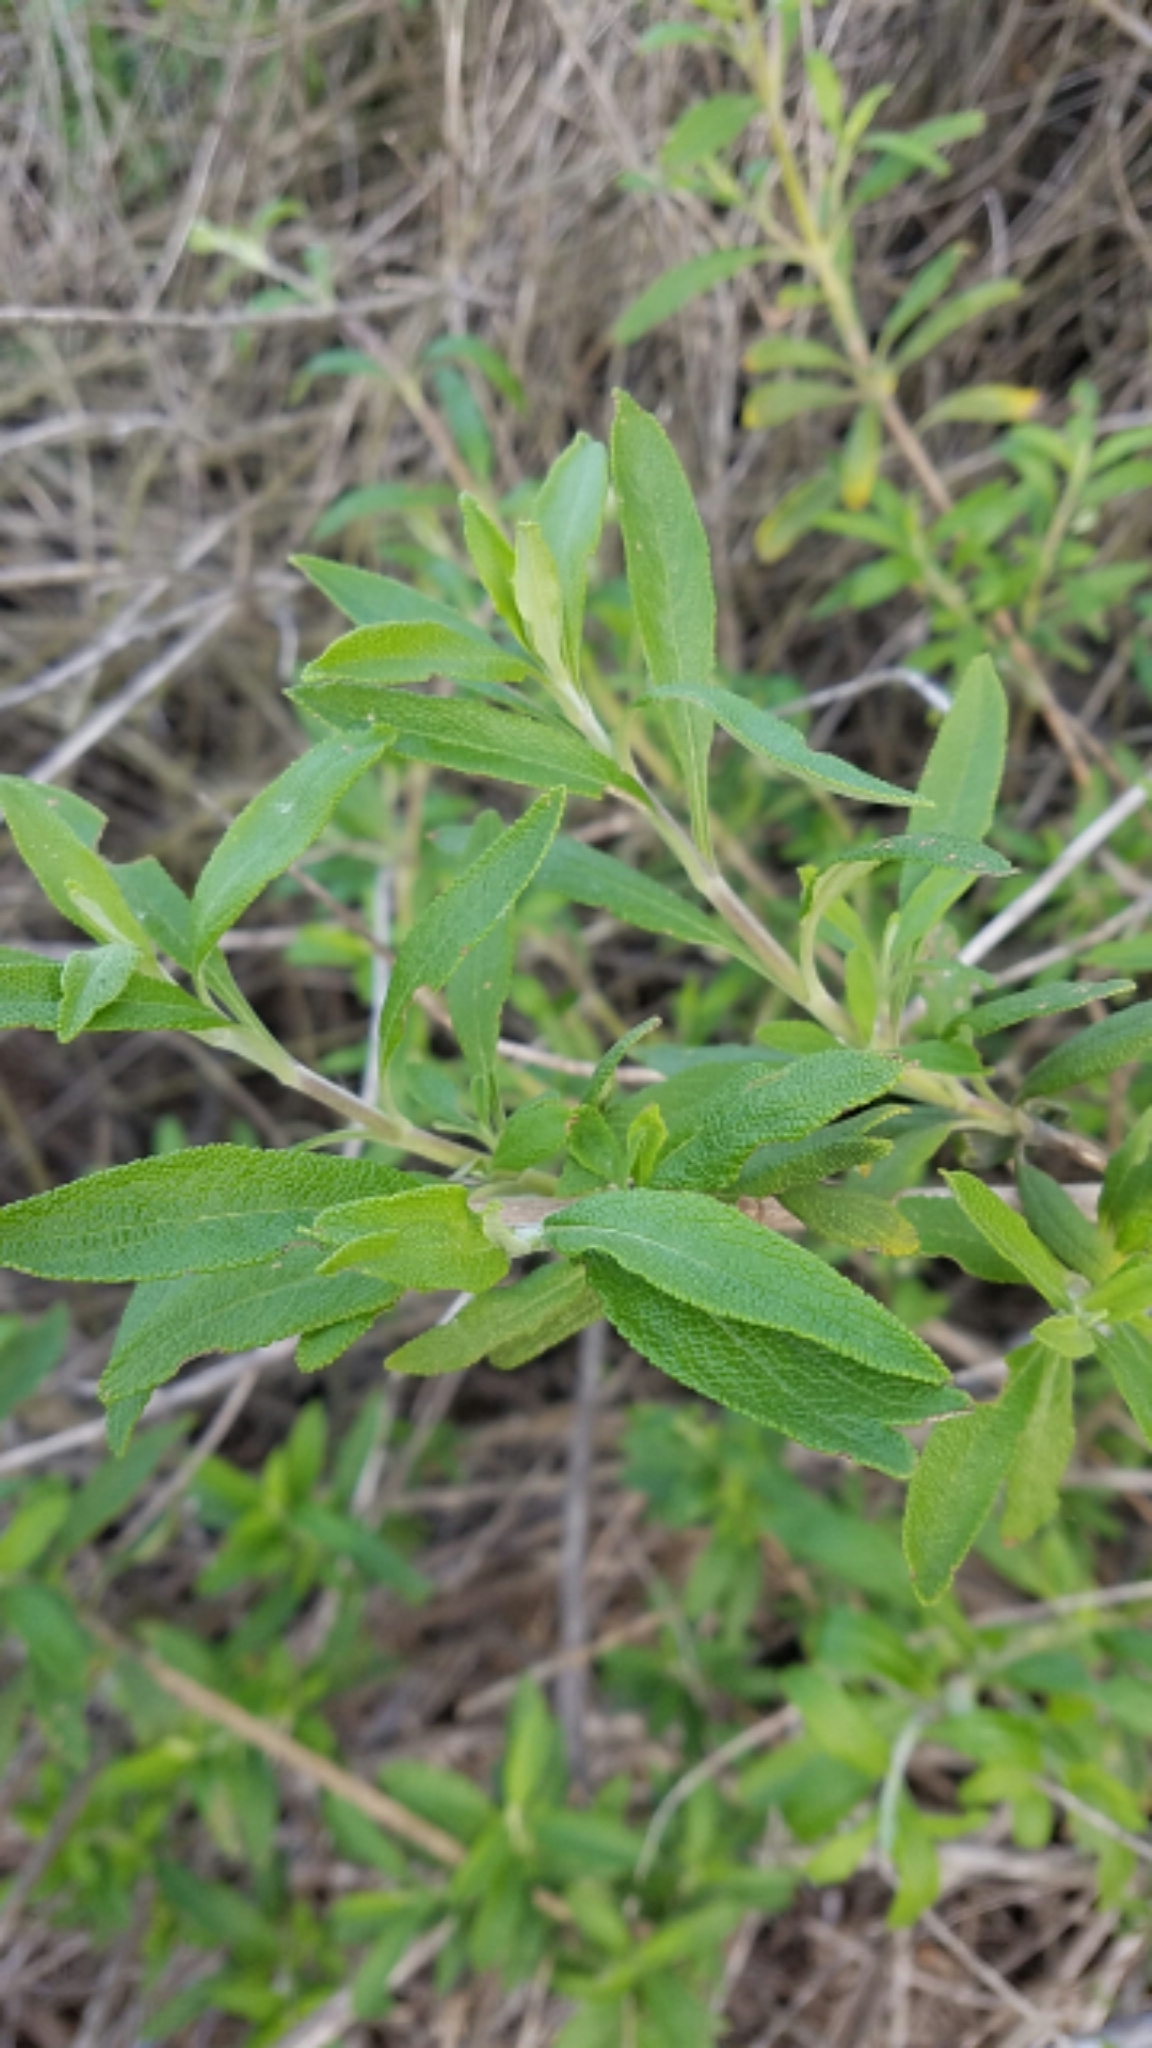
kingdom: Plantae
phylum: Tracheophyta
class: Magnoliopsida
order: Lamiales
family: Lamiaceae
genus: Salvia
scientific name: Salvia mellifera
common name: Black sage
